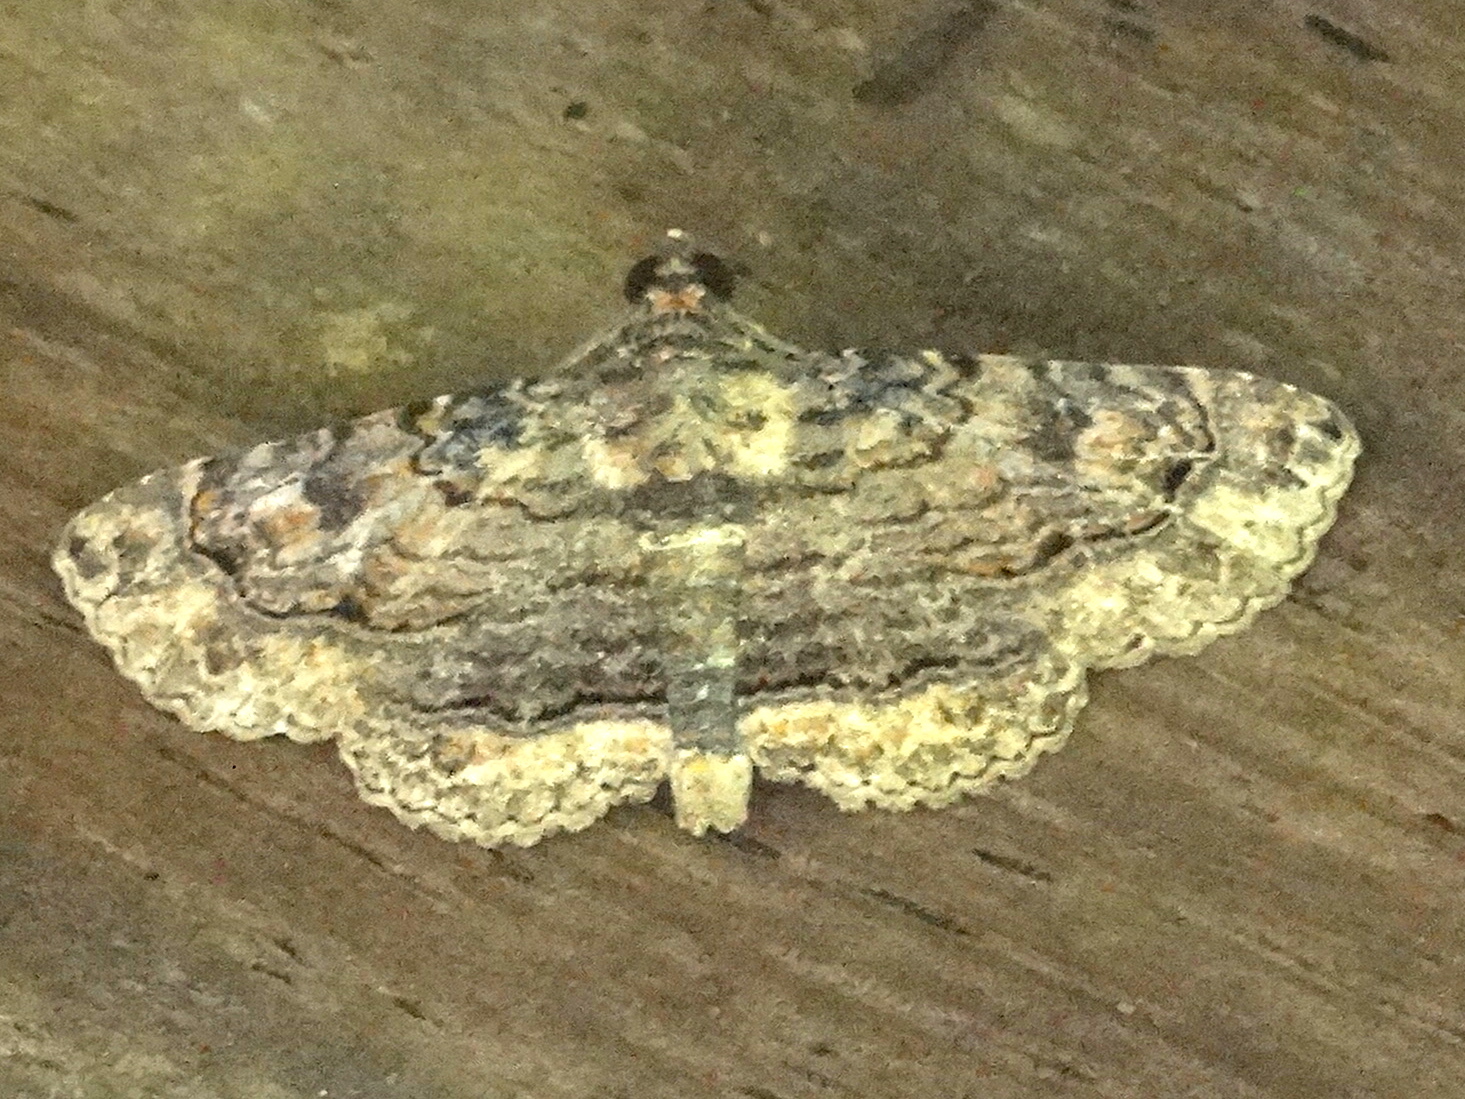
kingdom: Animalia
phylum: Arthropoda
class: Insecta
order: Lepidoptera
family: Erebidae
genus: Toxonprucha
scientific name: Toxonprucha
